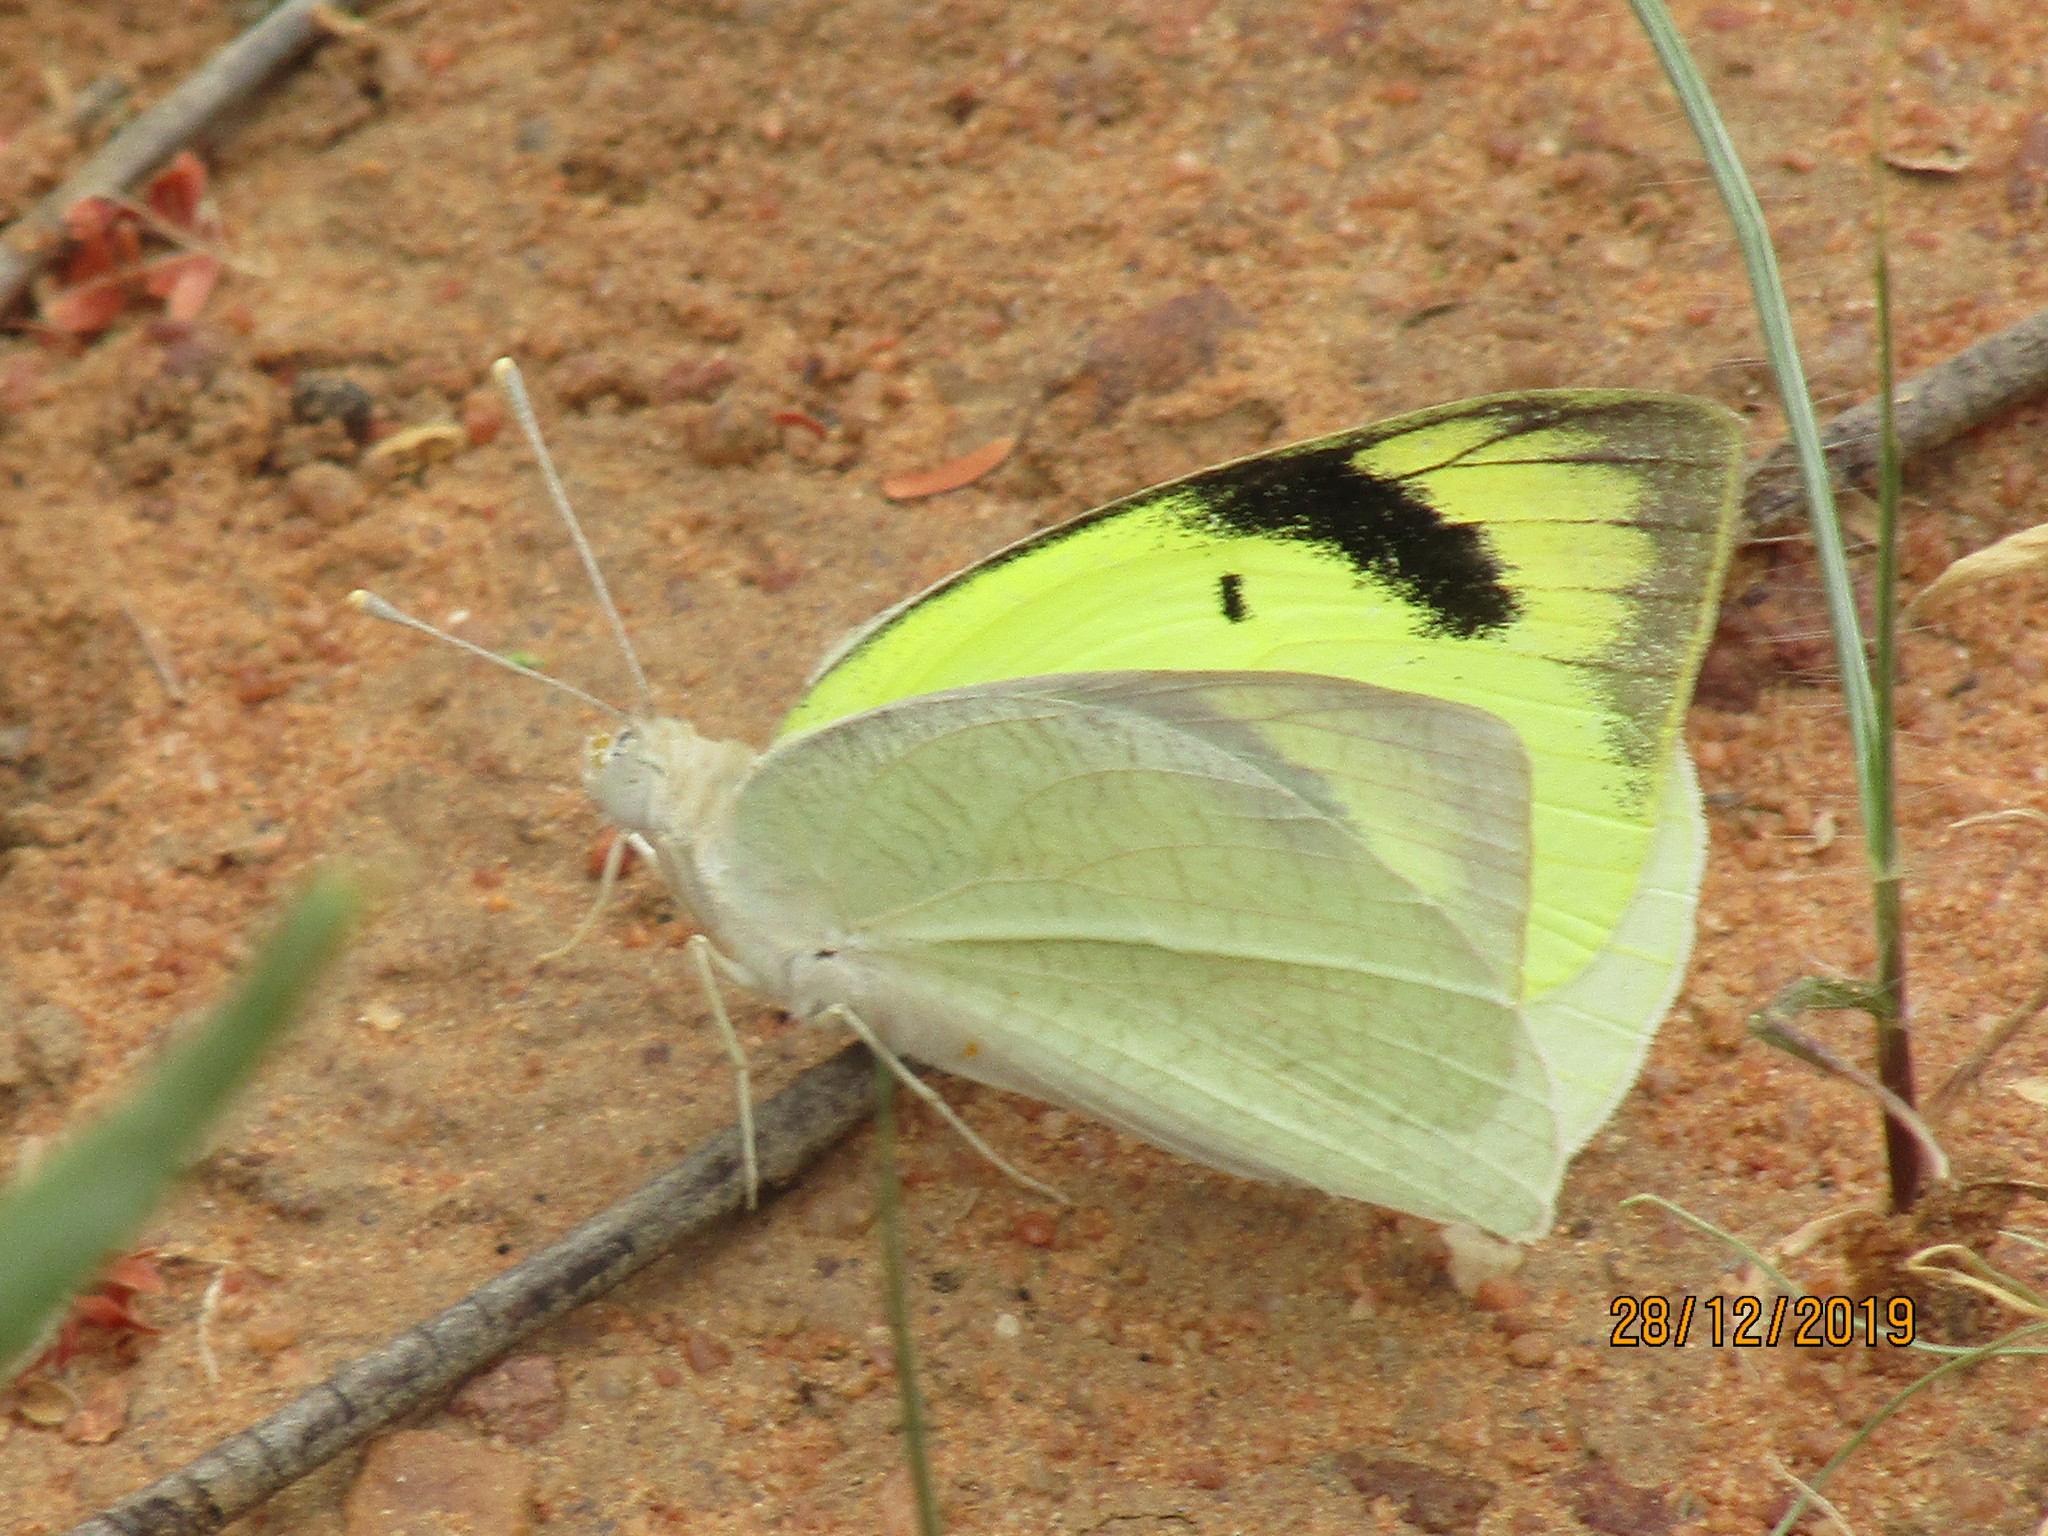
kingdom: Animalia
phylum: Arthropoda
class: Insecta
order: Lepidoptera
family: Pieridae
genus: Colotis
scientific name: Colotis subfasciatus
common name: Lemon traveller tip
